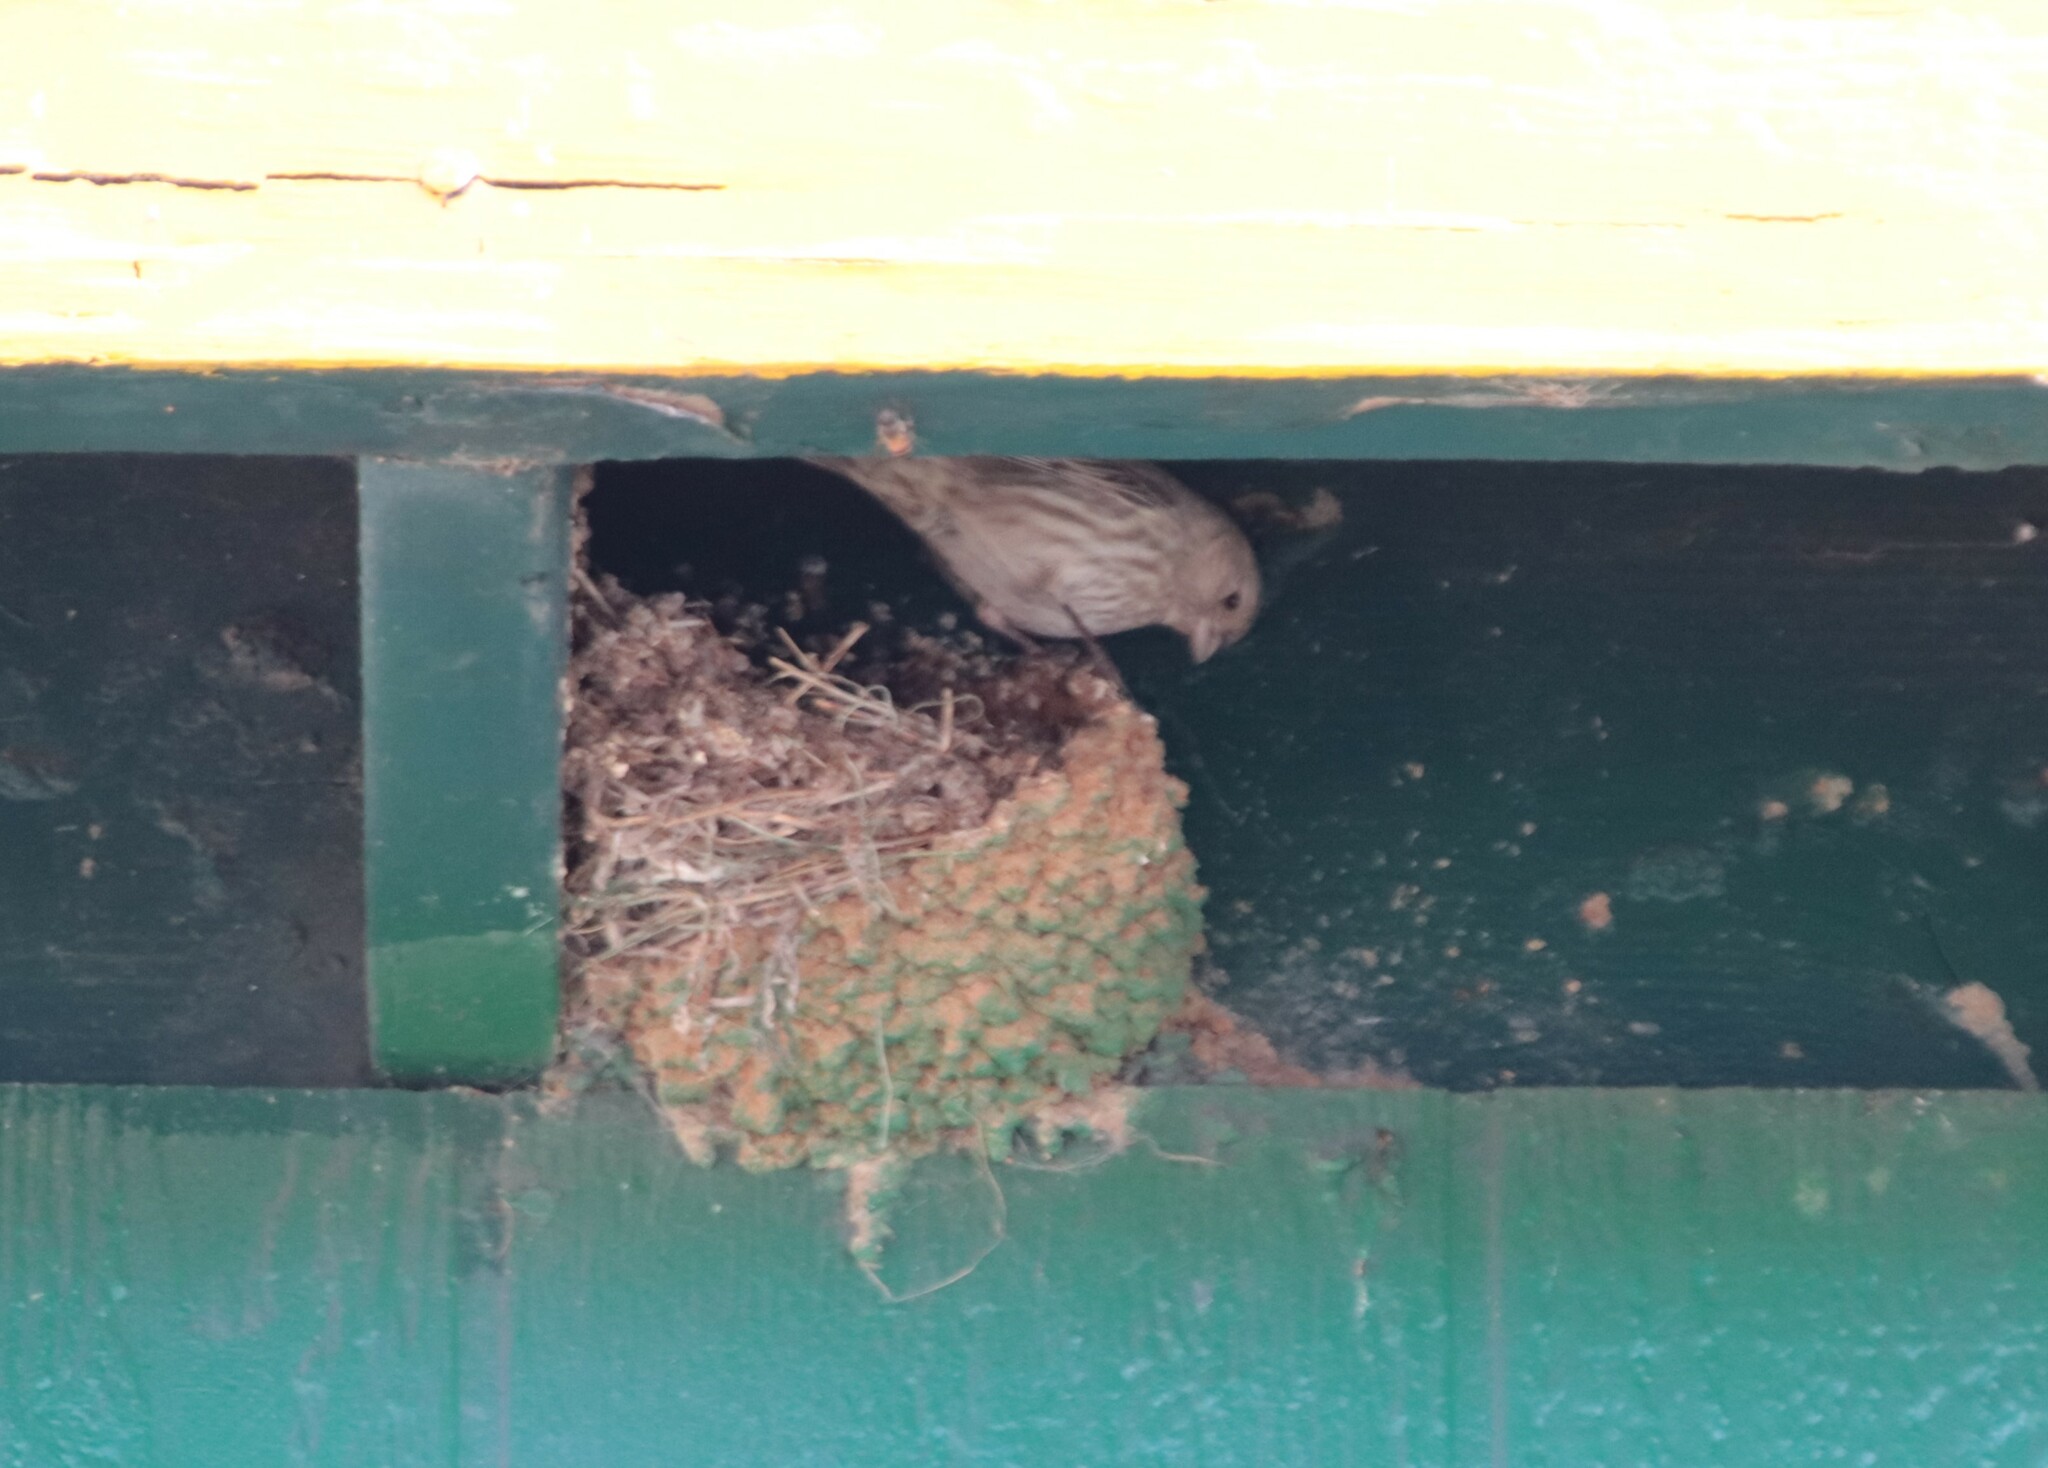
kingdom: Animalia
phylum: Chordata
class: Aves
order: Passeriformes
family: Fringillidae
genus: Haemorhous
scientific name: Haemorhous mexicanus
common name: House finch
